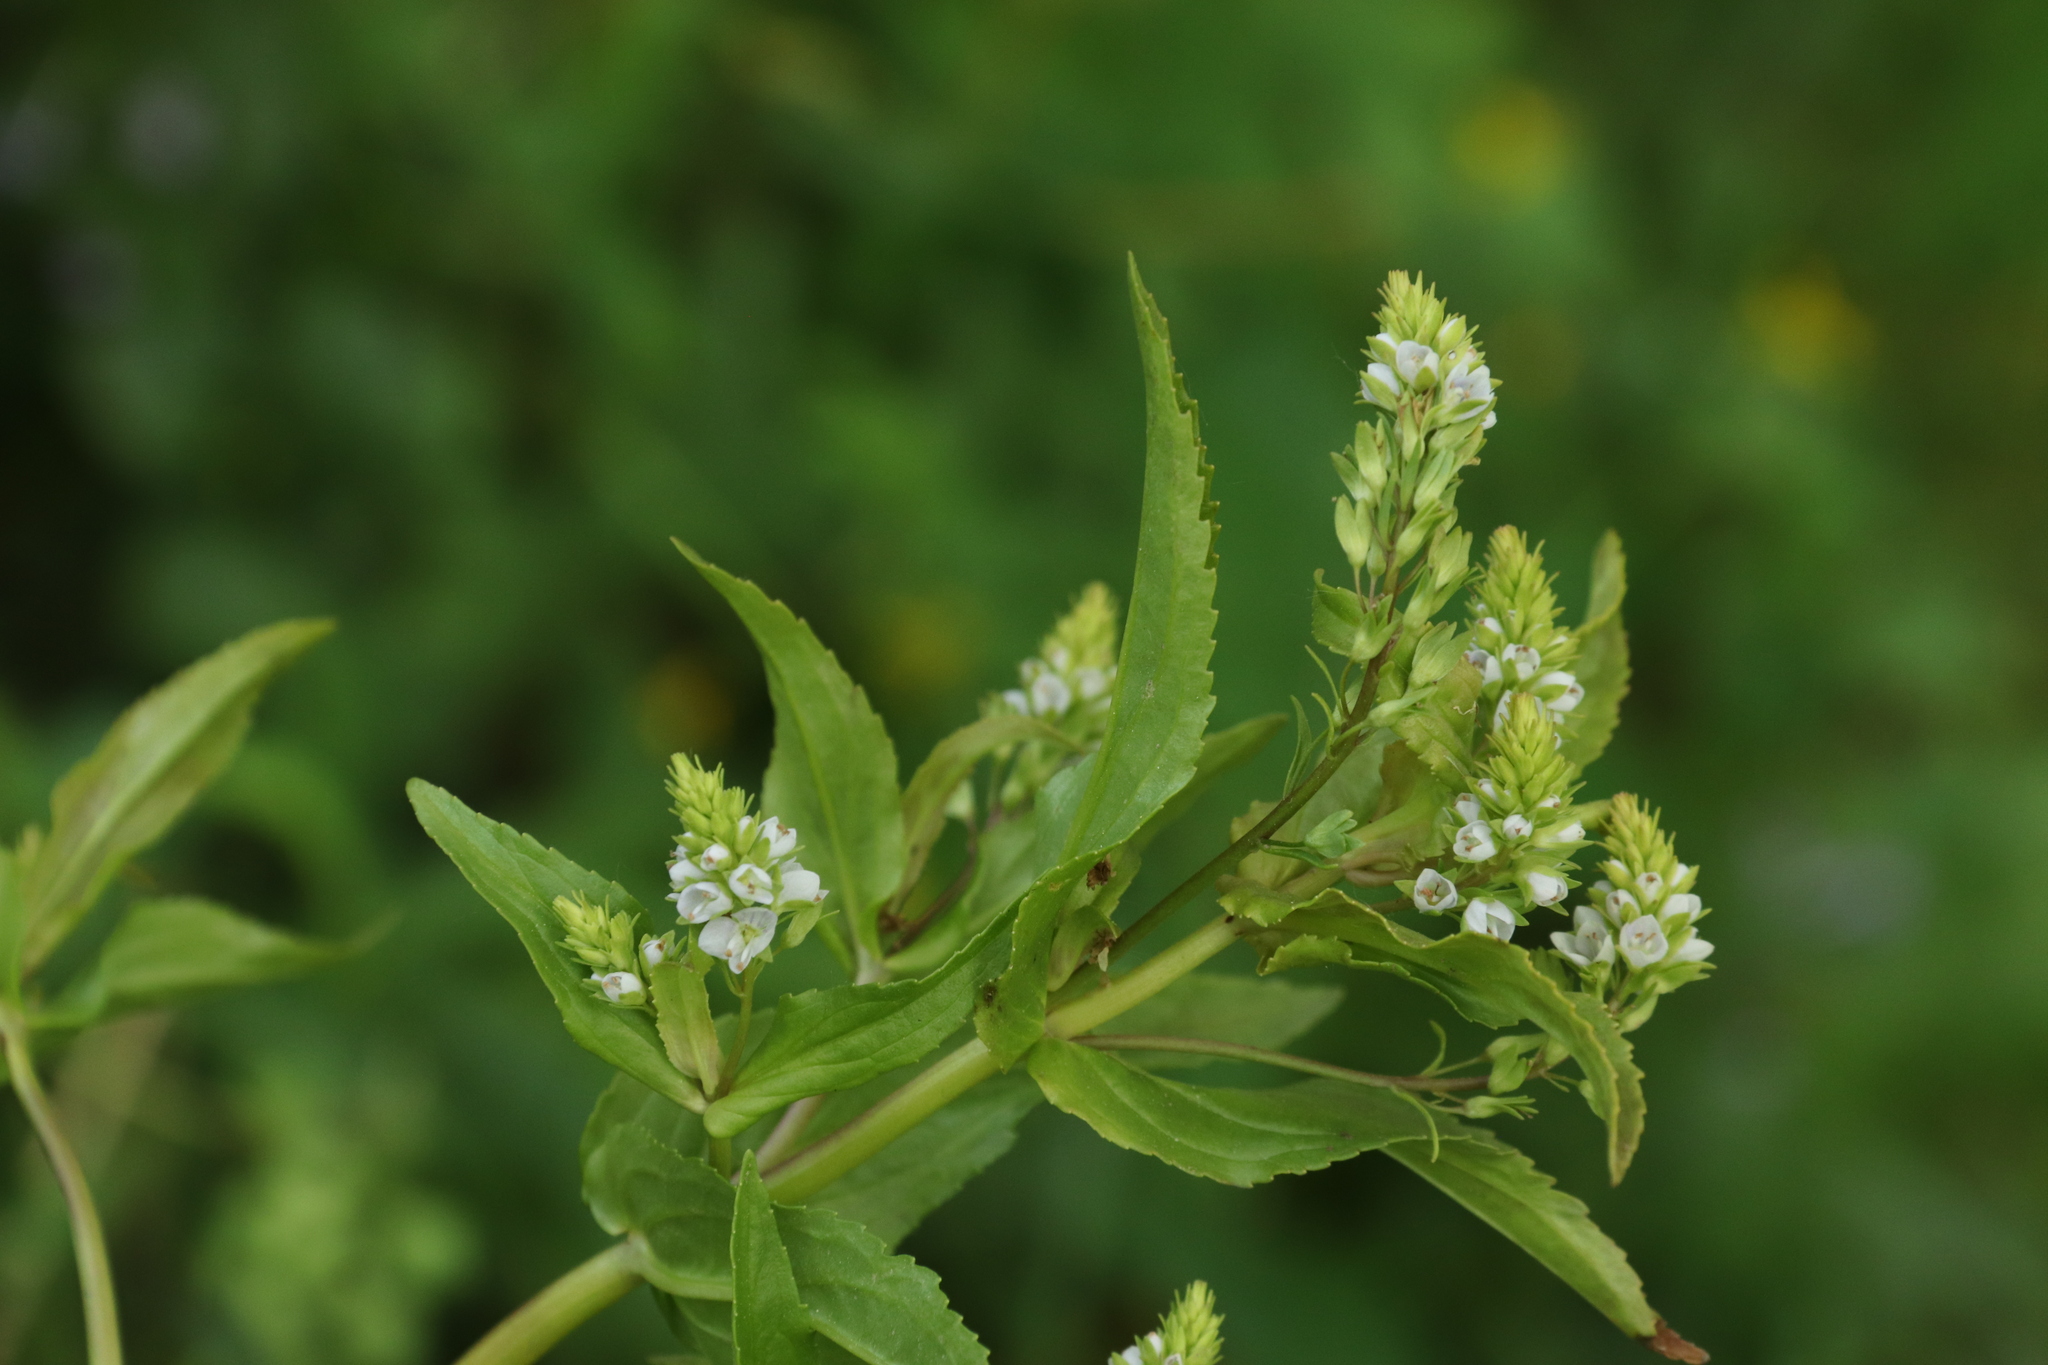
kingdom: Plantae
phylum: Tracheophyta
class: Magnoliopsida
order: Lamiales
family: Plantaginaceae
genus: Veronica
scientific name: Veronica catenata
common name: Pink water-speedwell
